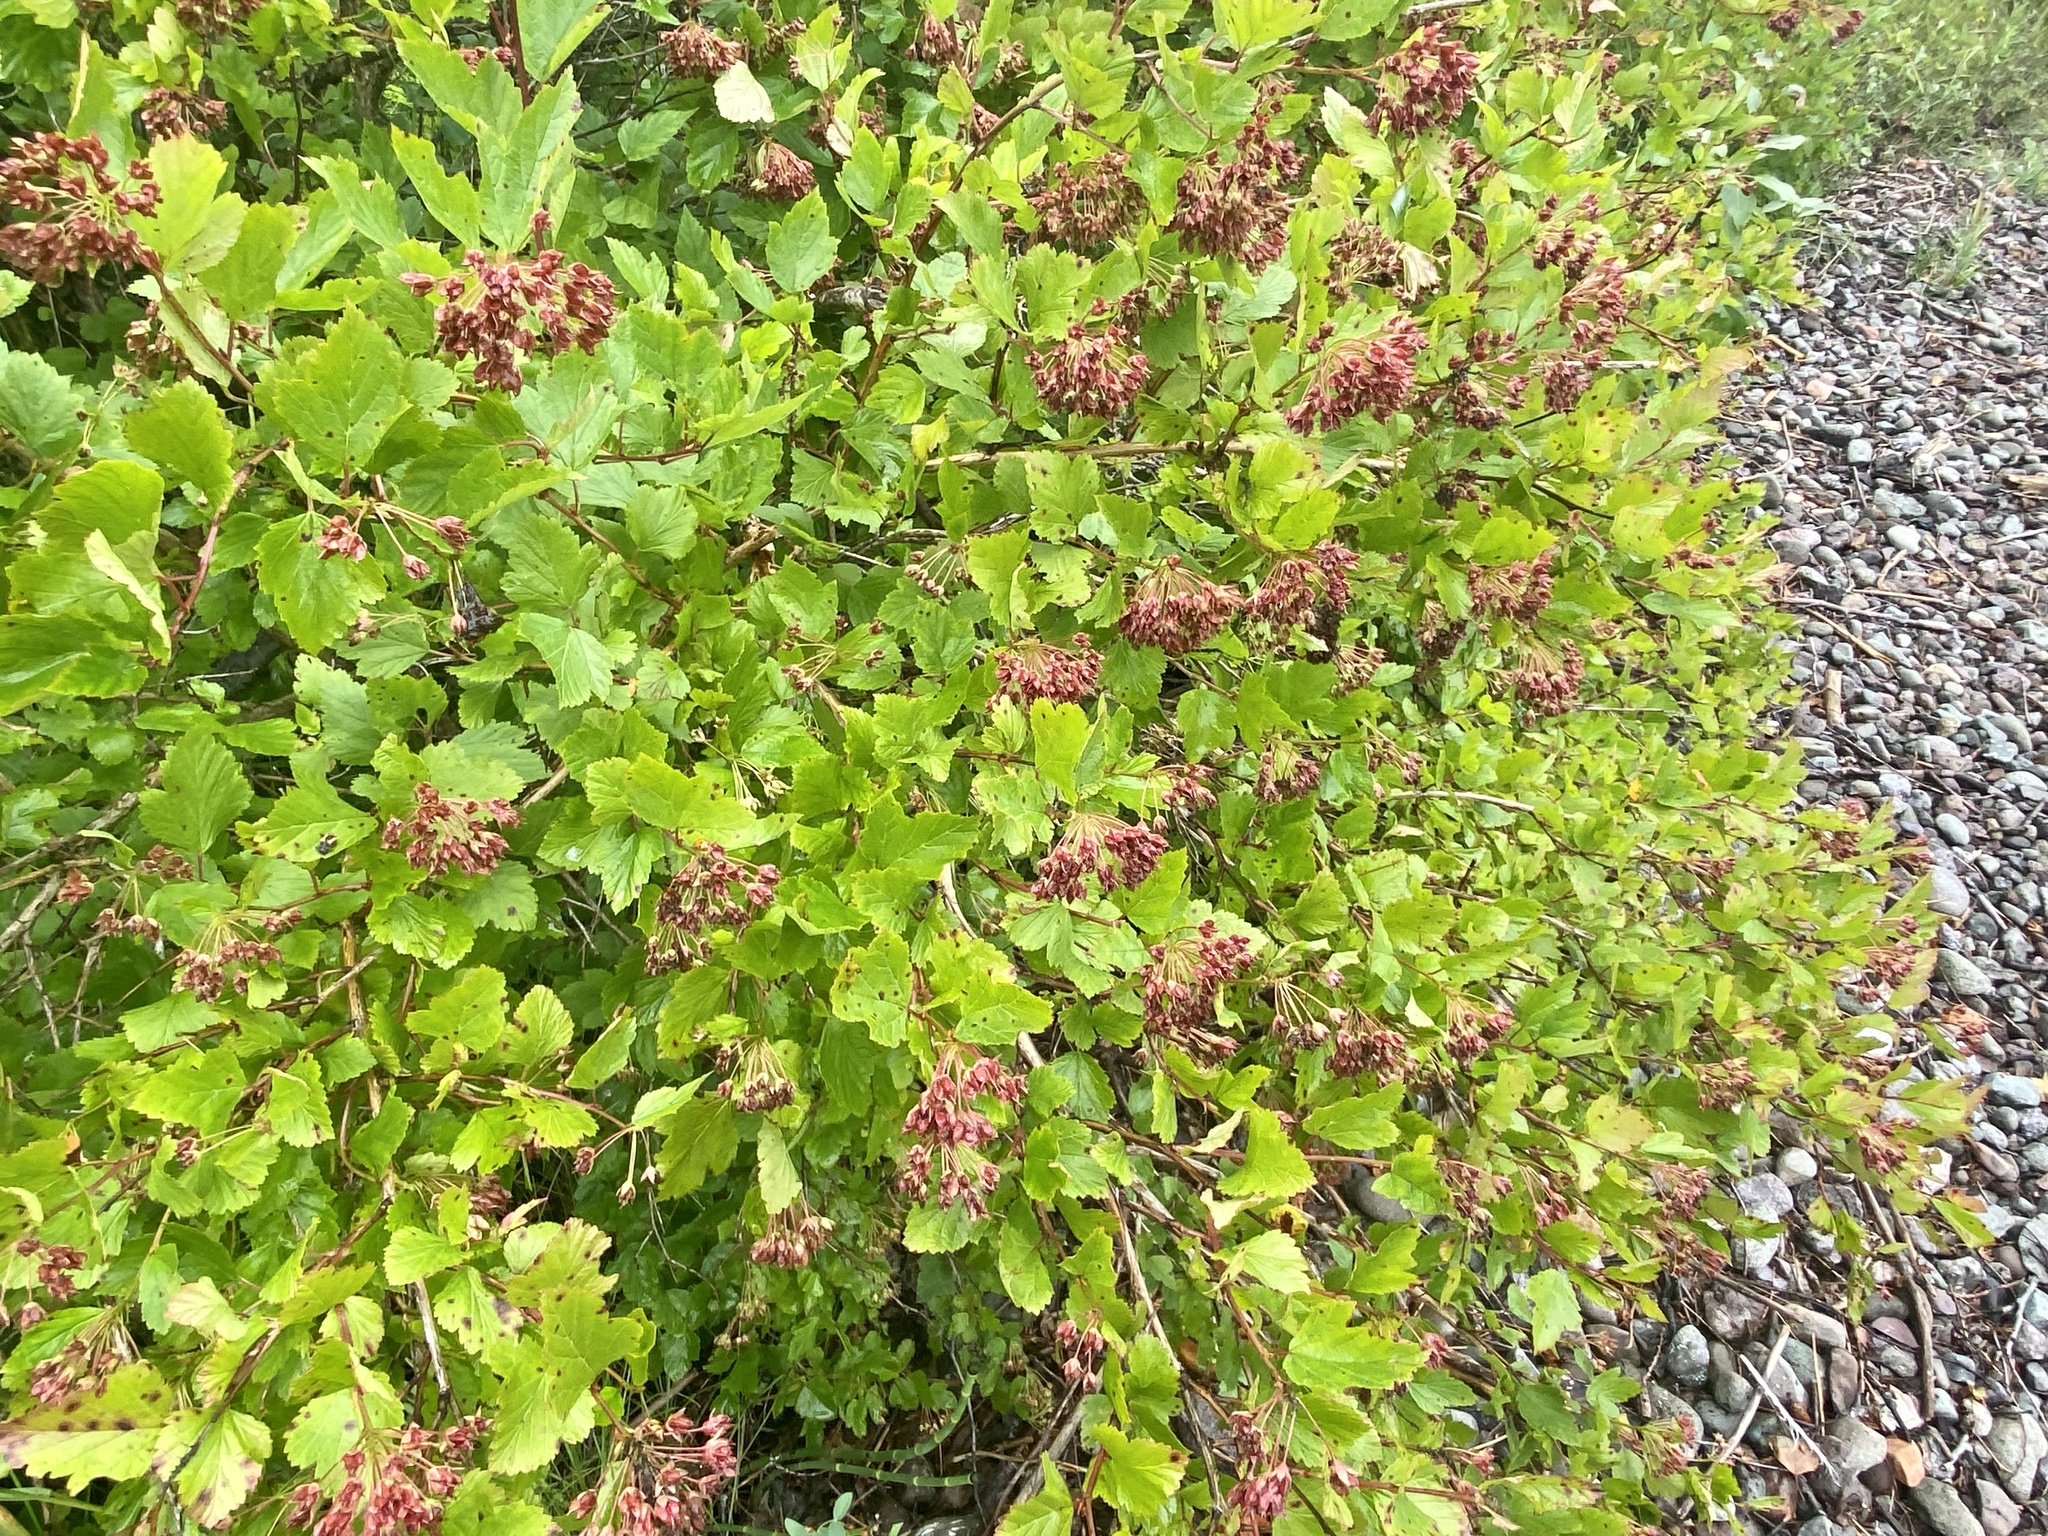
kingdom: Plantae
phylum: Tracheophyta
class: Magnoliopsida
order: Rosales
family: Rosaceae
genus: Physocarpus
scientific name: Physocarpus opulifolius
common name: Ninebark
